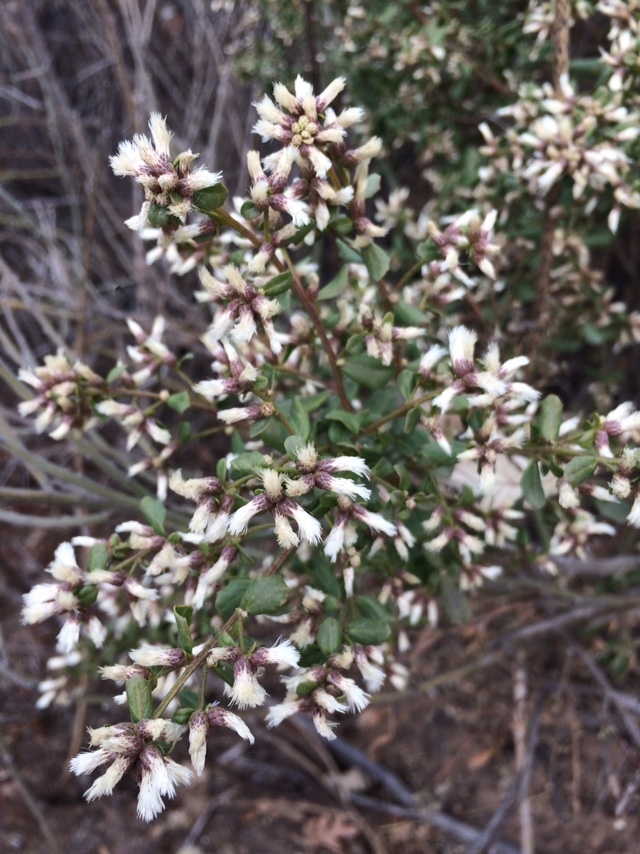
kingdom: Plantae
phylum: Tracheophyta
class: Magnoliopsida
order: Asterales
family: Asteraceae
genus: Baccharis
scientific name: Baccharis pilularis
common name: Coyotebrush
